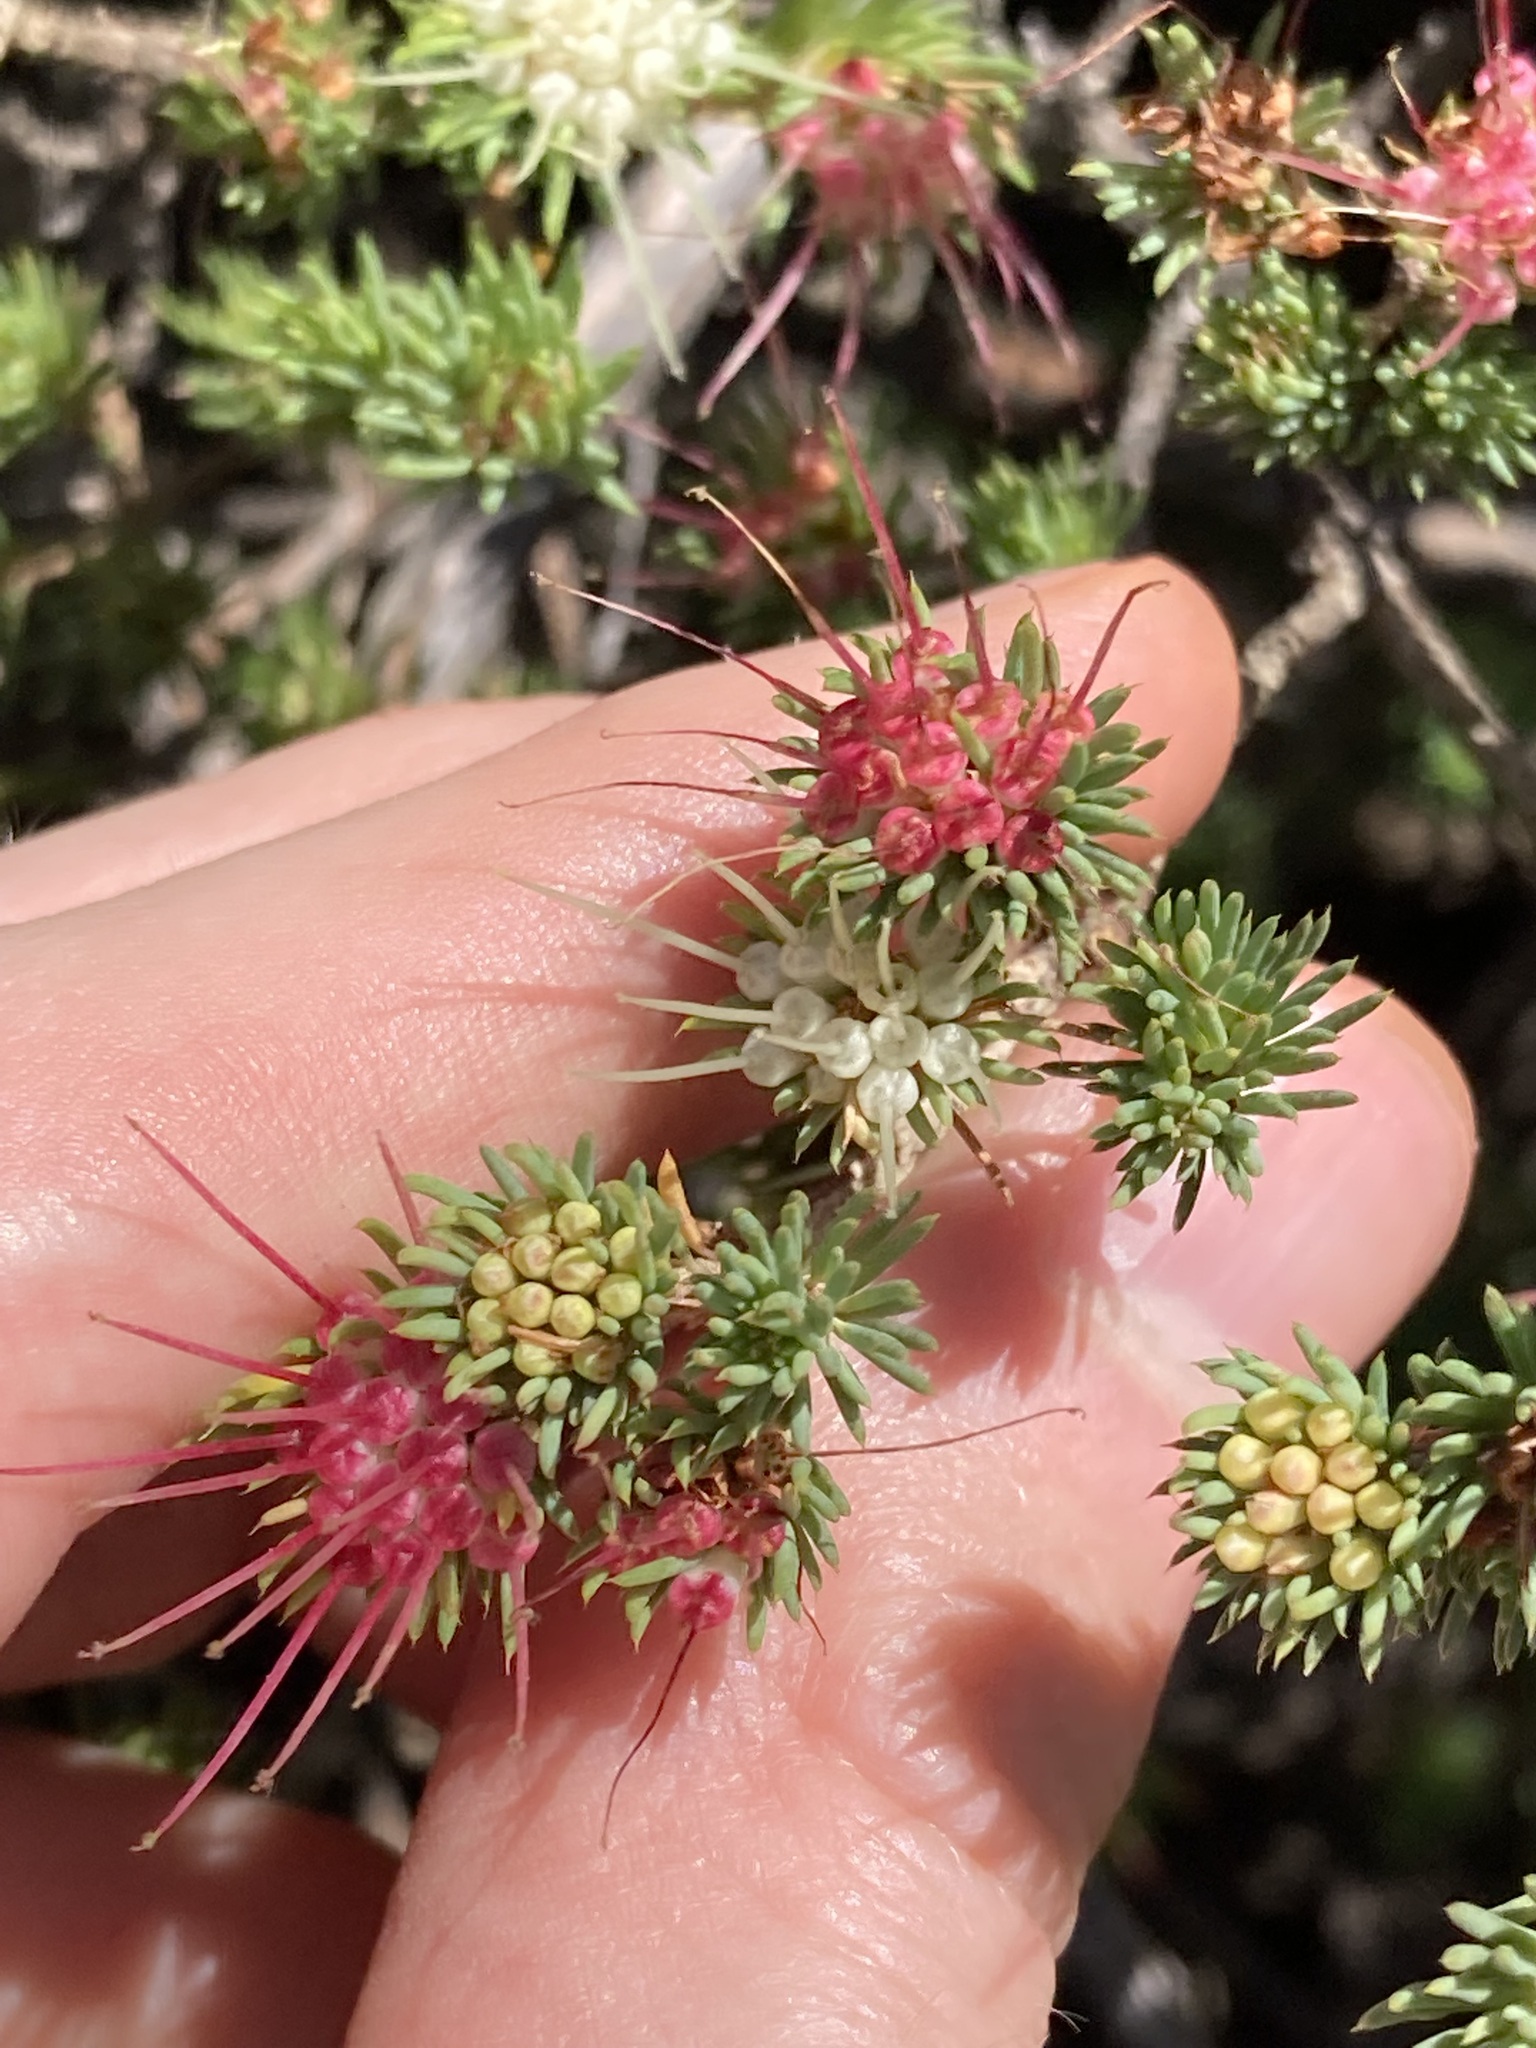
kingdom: Plantae
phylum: Tracheophyta
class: Magnoliopsida
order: Myrtales
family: Myrtaceae
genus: Darwinia
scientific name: Darwinia fascicularis
